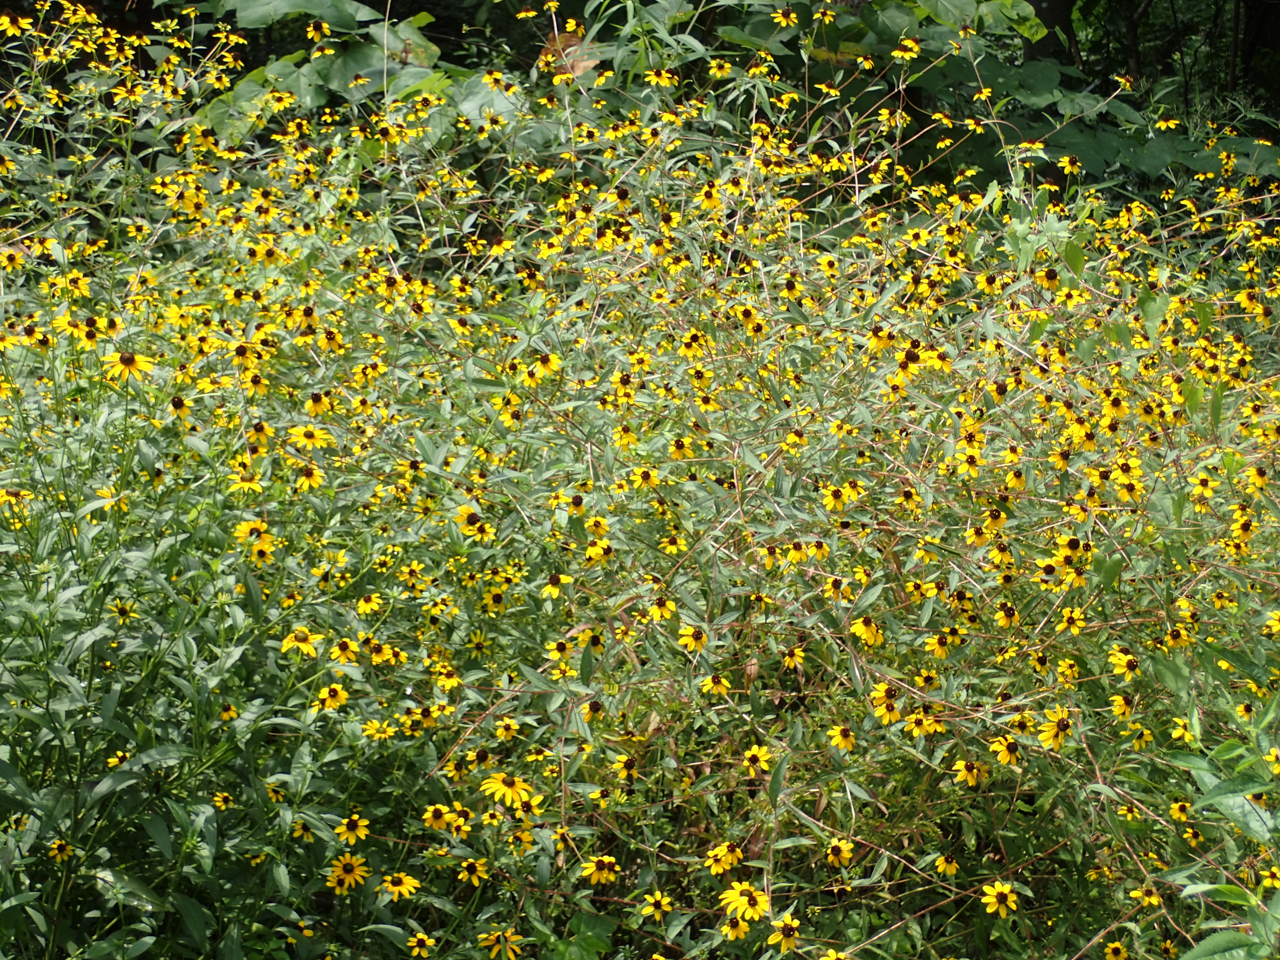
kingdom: Plantae
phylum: Tracheophyta
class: Magnoliopsida
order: Asterales
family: Asteraceae
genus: Rudbeckia
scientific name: Rudbeckia hirta
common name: Black-eyed-susan
